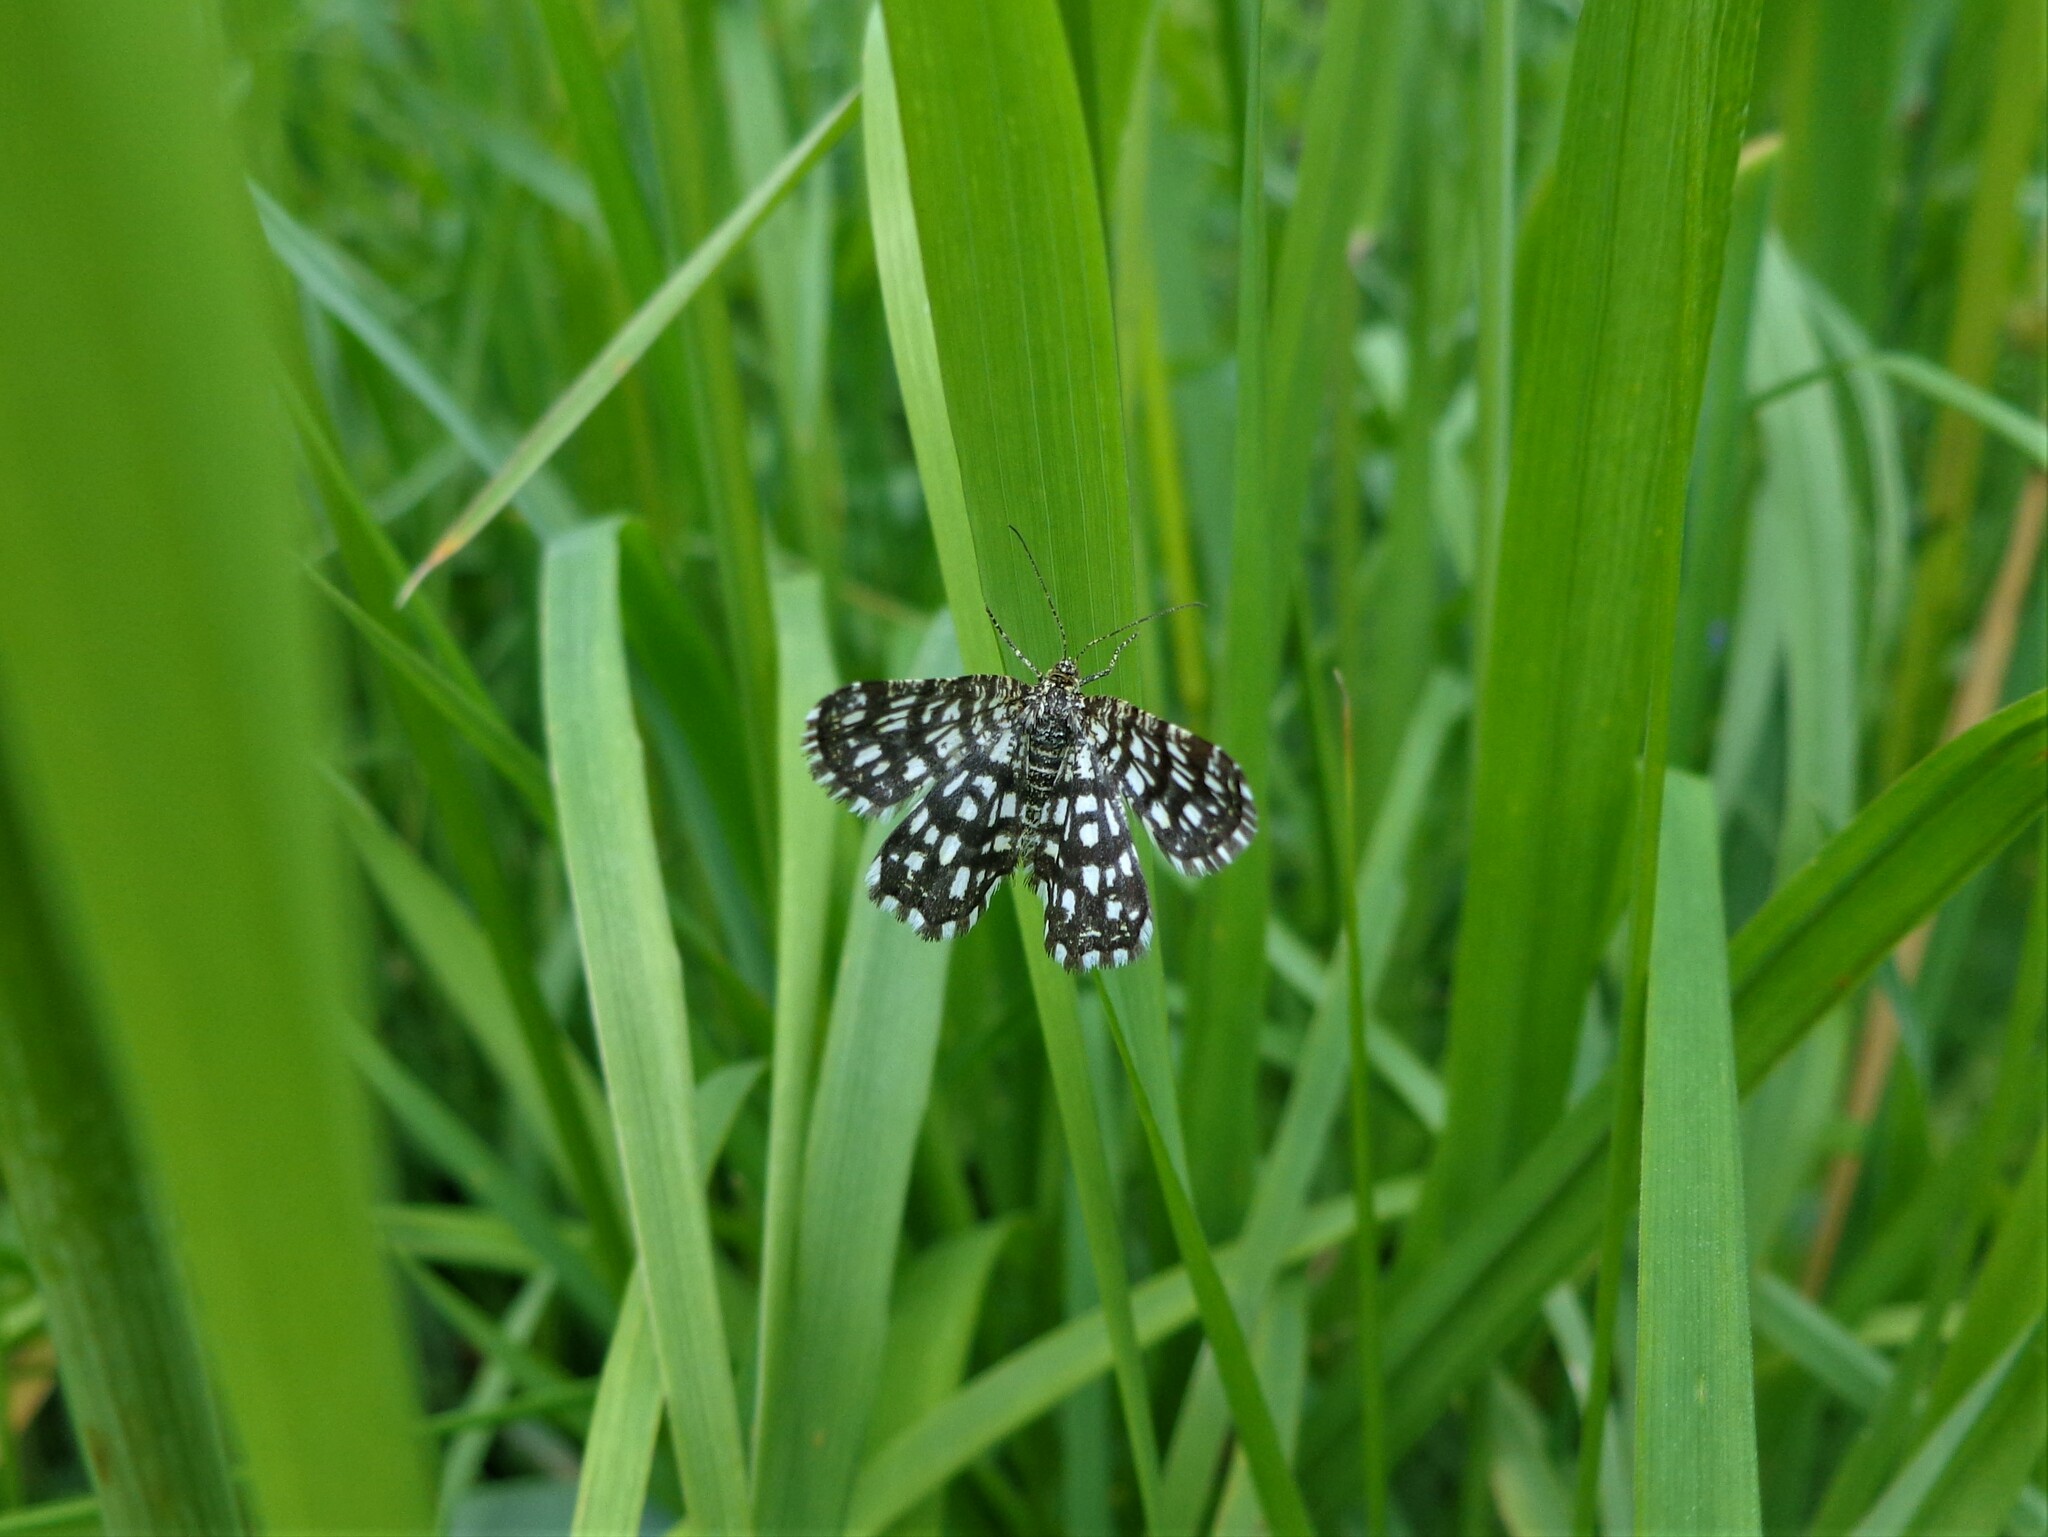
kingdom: Animalia
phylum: Arthropoda
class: Insecta
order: Lepidoptera
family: Geometridae
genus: Chiasmia
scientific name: Chiasmia clathrata
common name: Latticed heath
